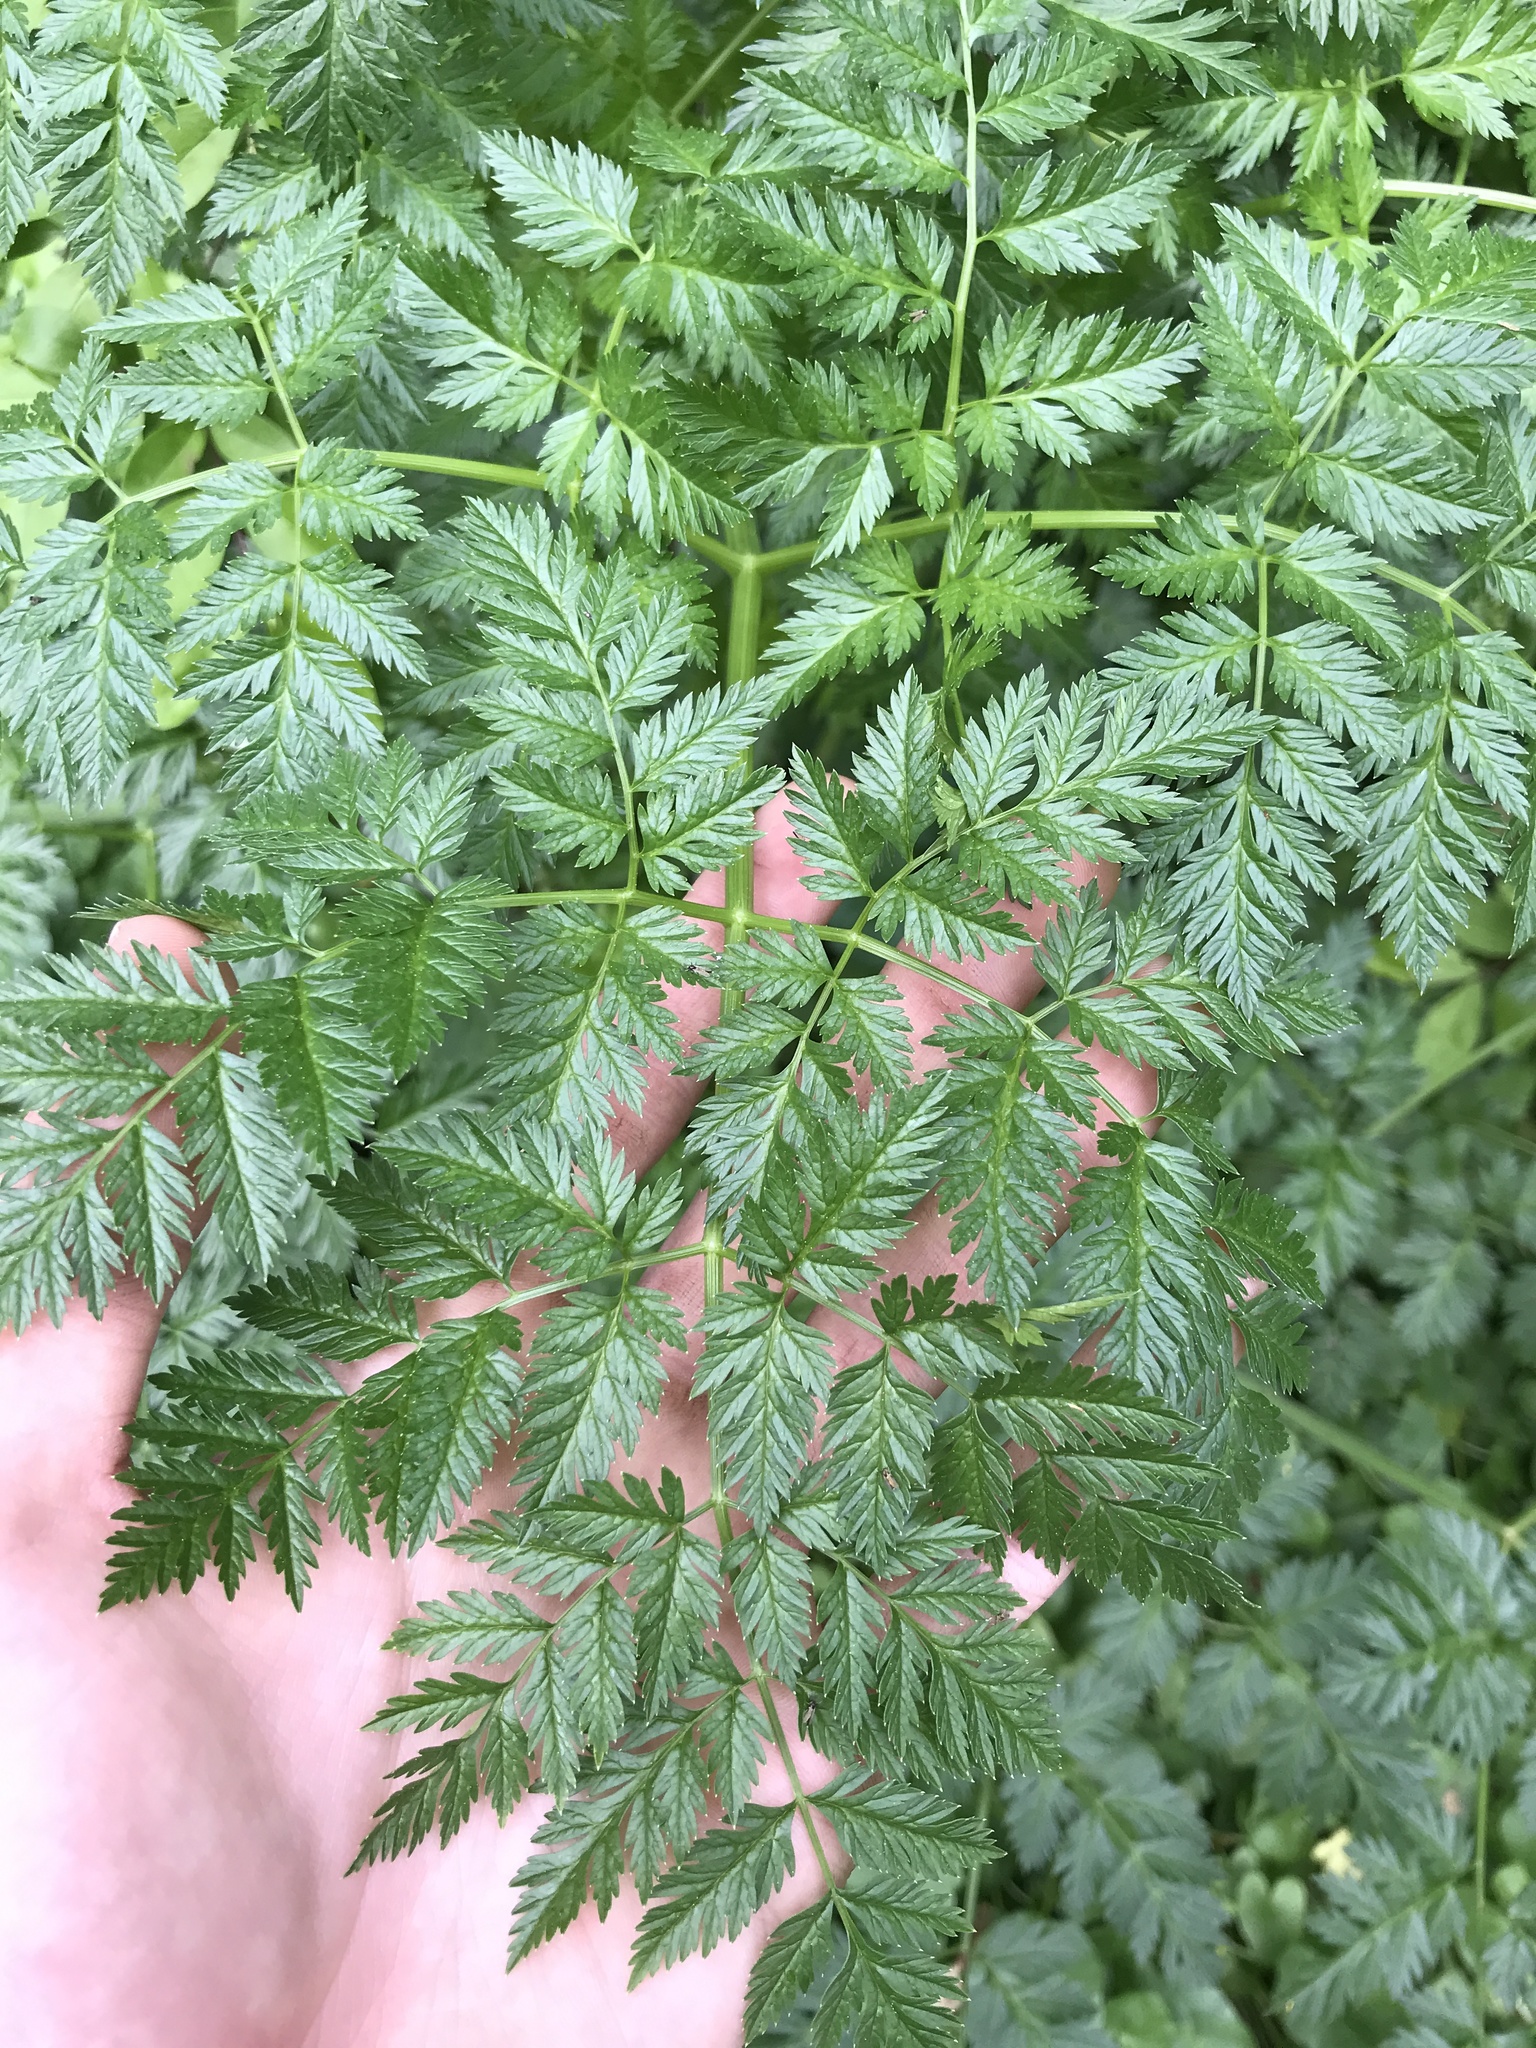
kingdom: Plantae
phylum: Tracheophyta
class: Magnoliopsida
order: Apiales
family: Apiaceae
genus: Conium
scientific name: Conium maculatum
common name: Hemlock
